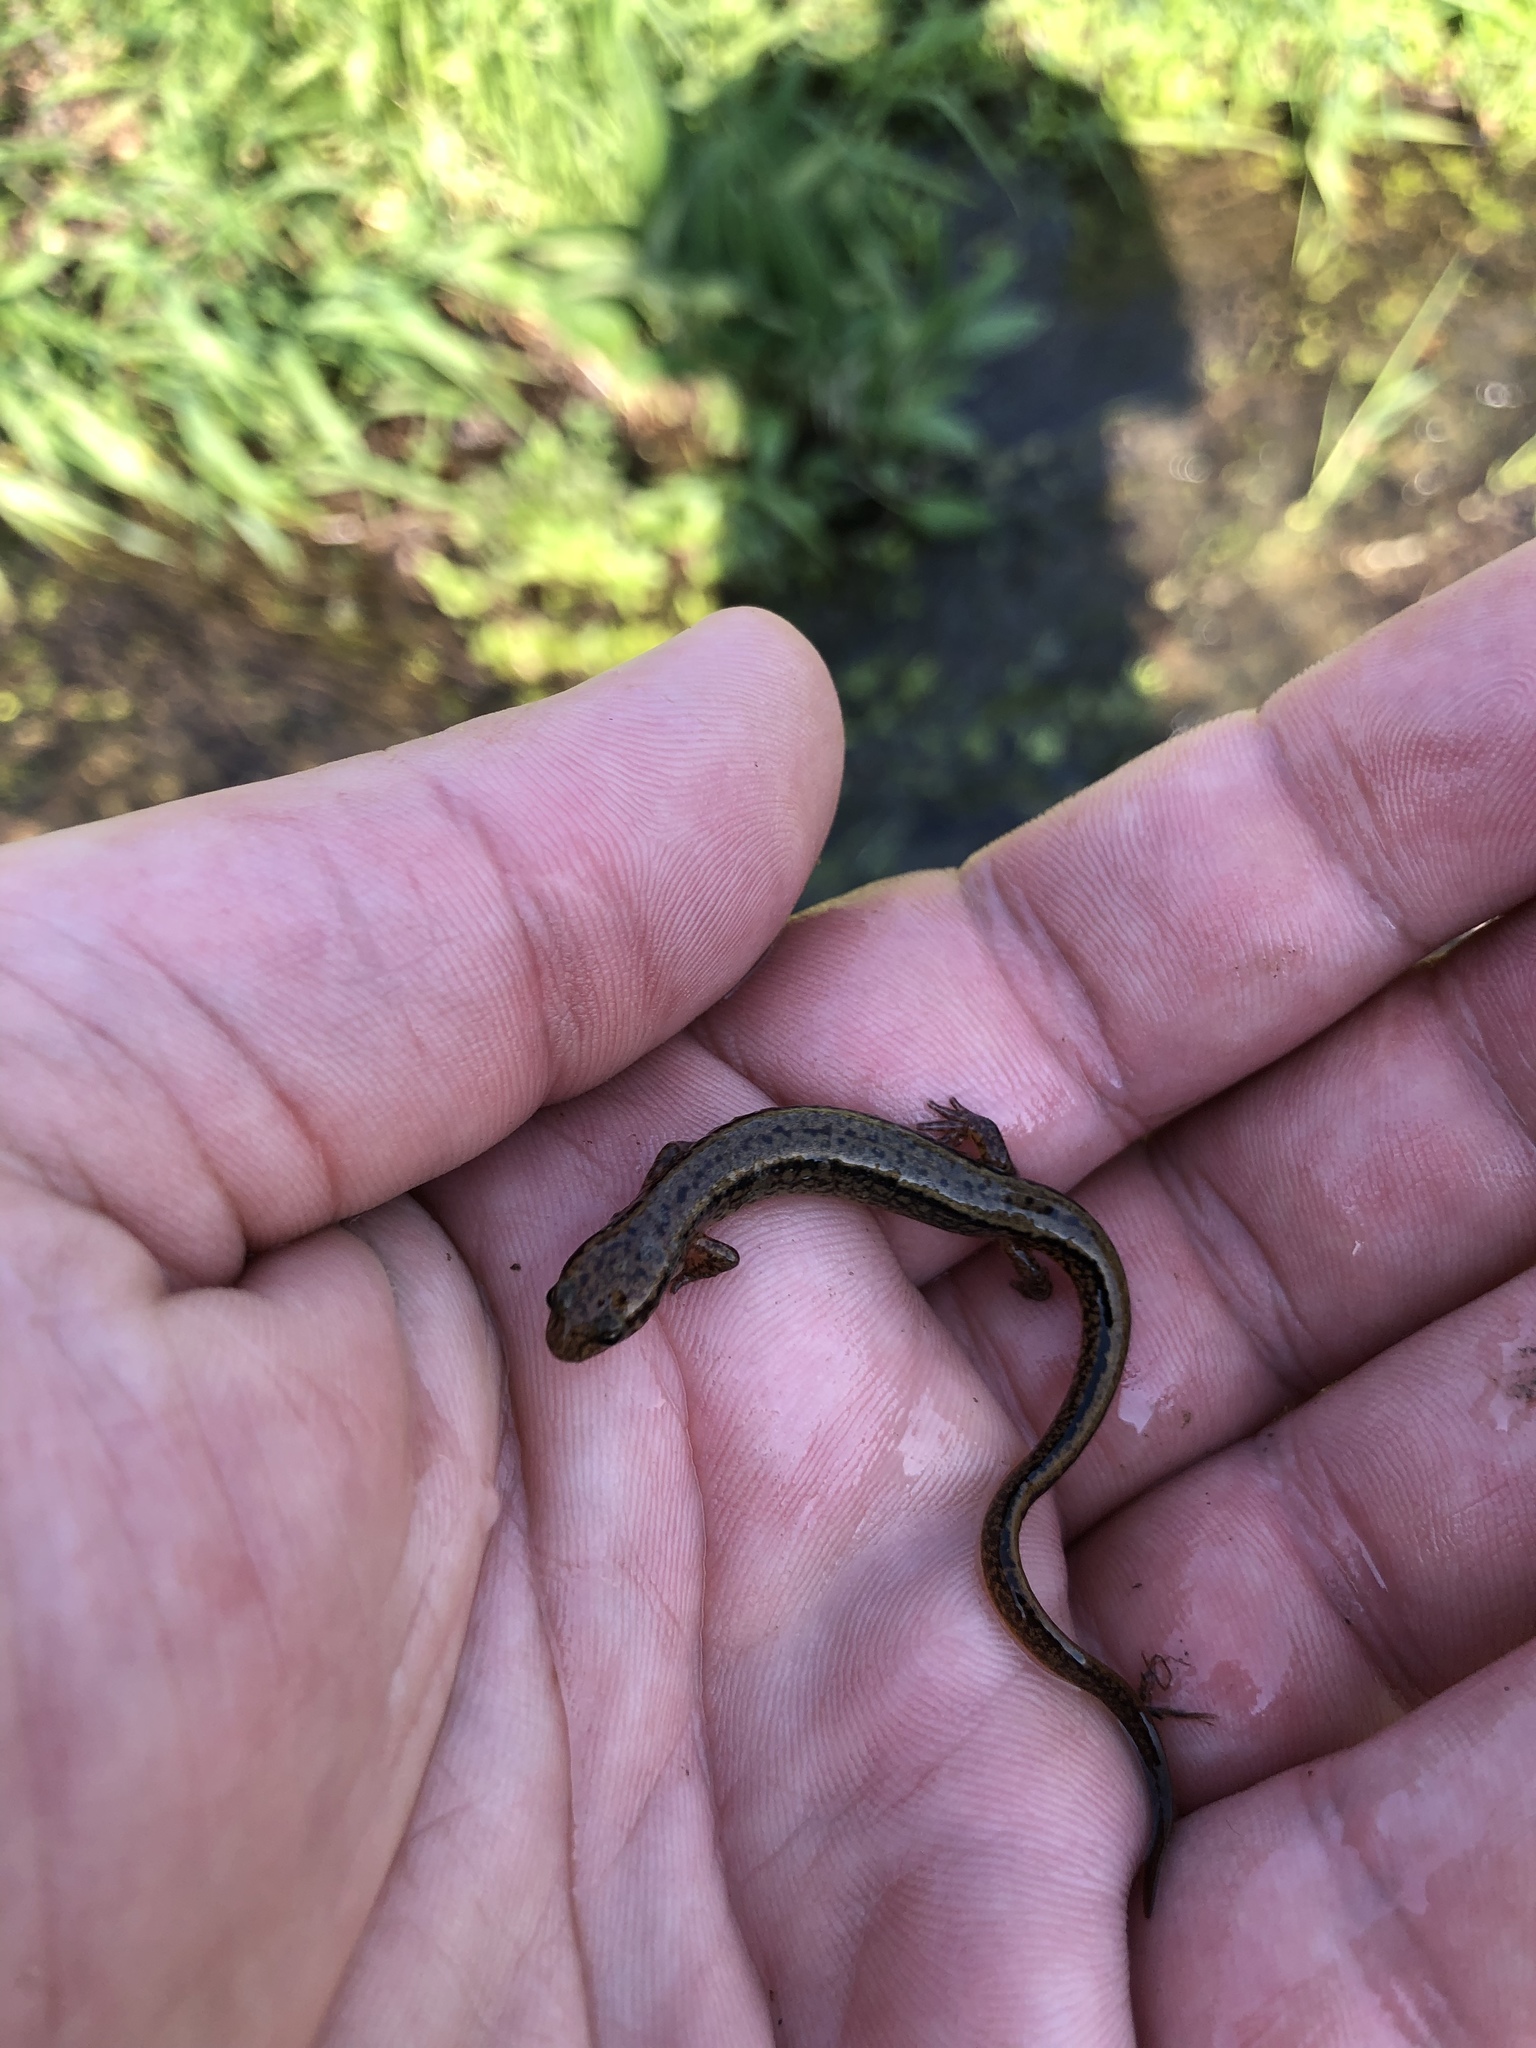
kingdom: Animalia
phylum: Chordata
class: Amphibia
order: Caudata
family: Plethodontidae
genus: Eurycea
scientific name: Eurycea bislineata
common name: Northern two-lined salamander
